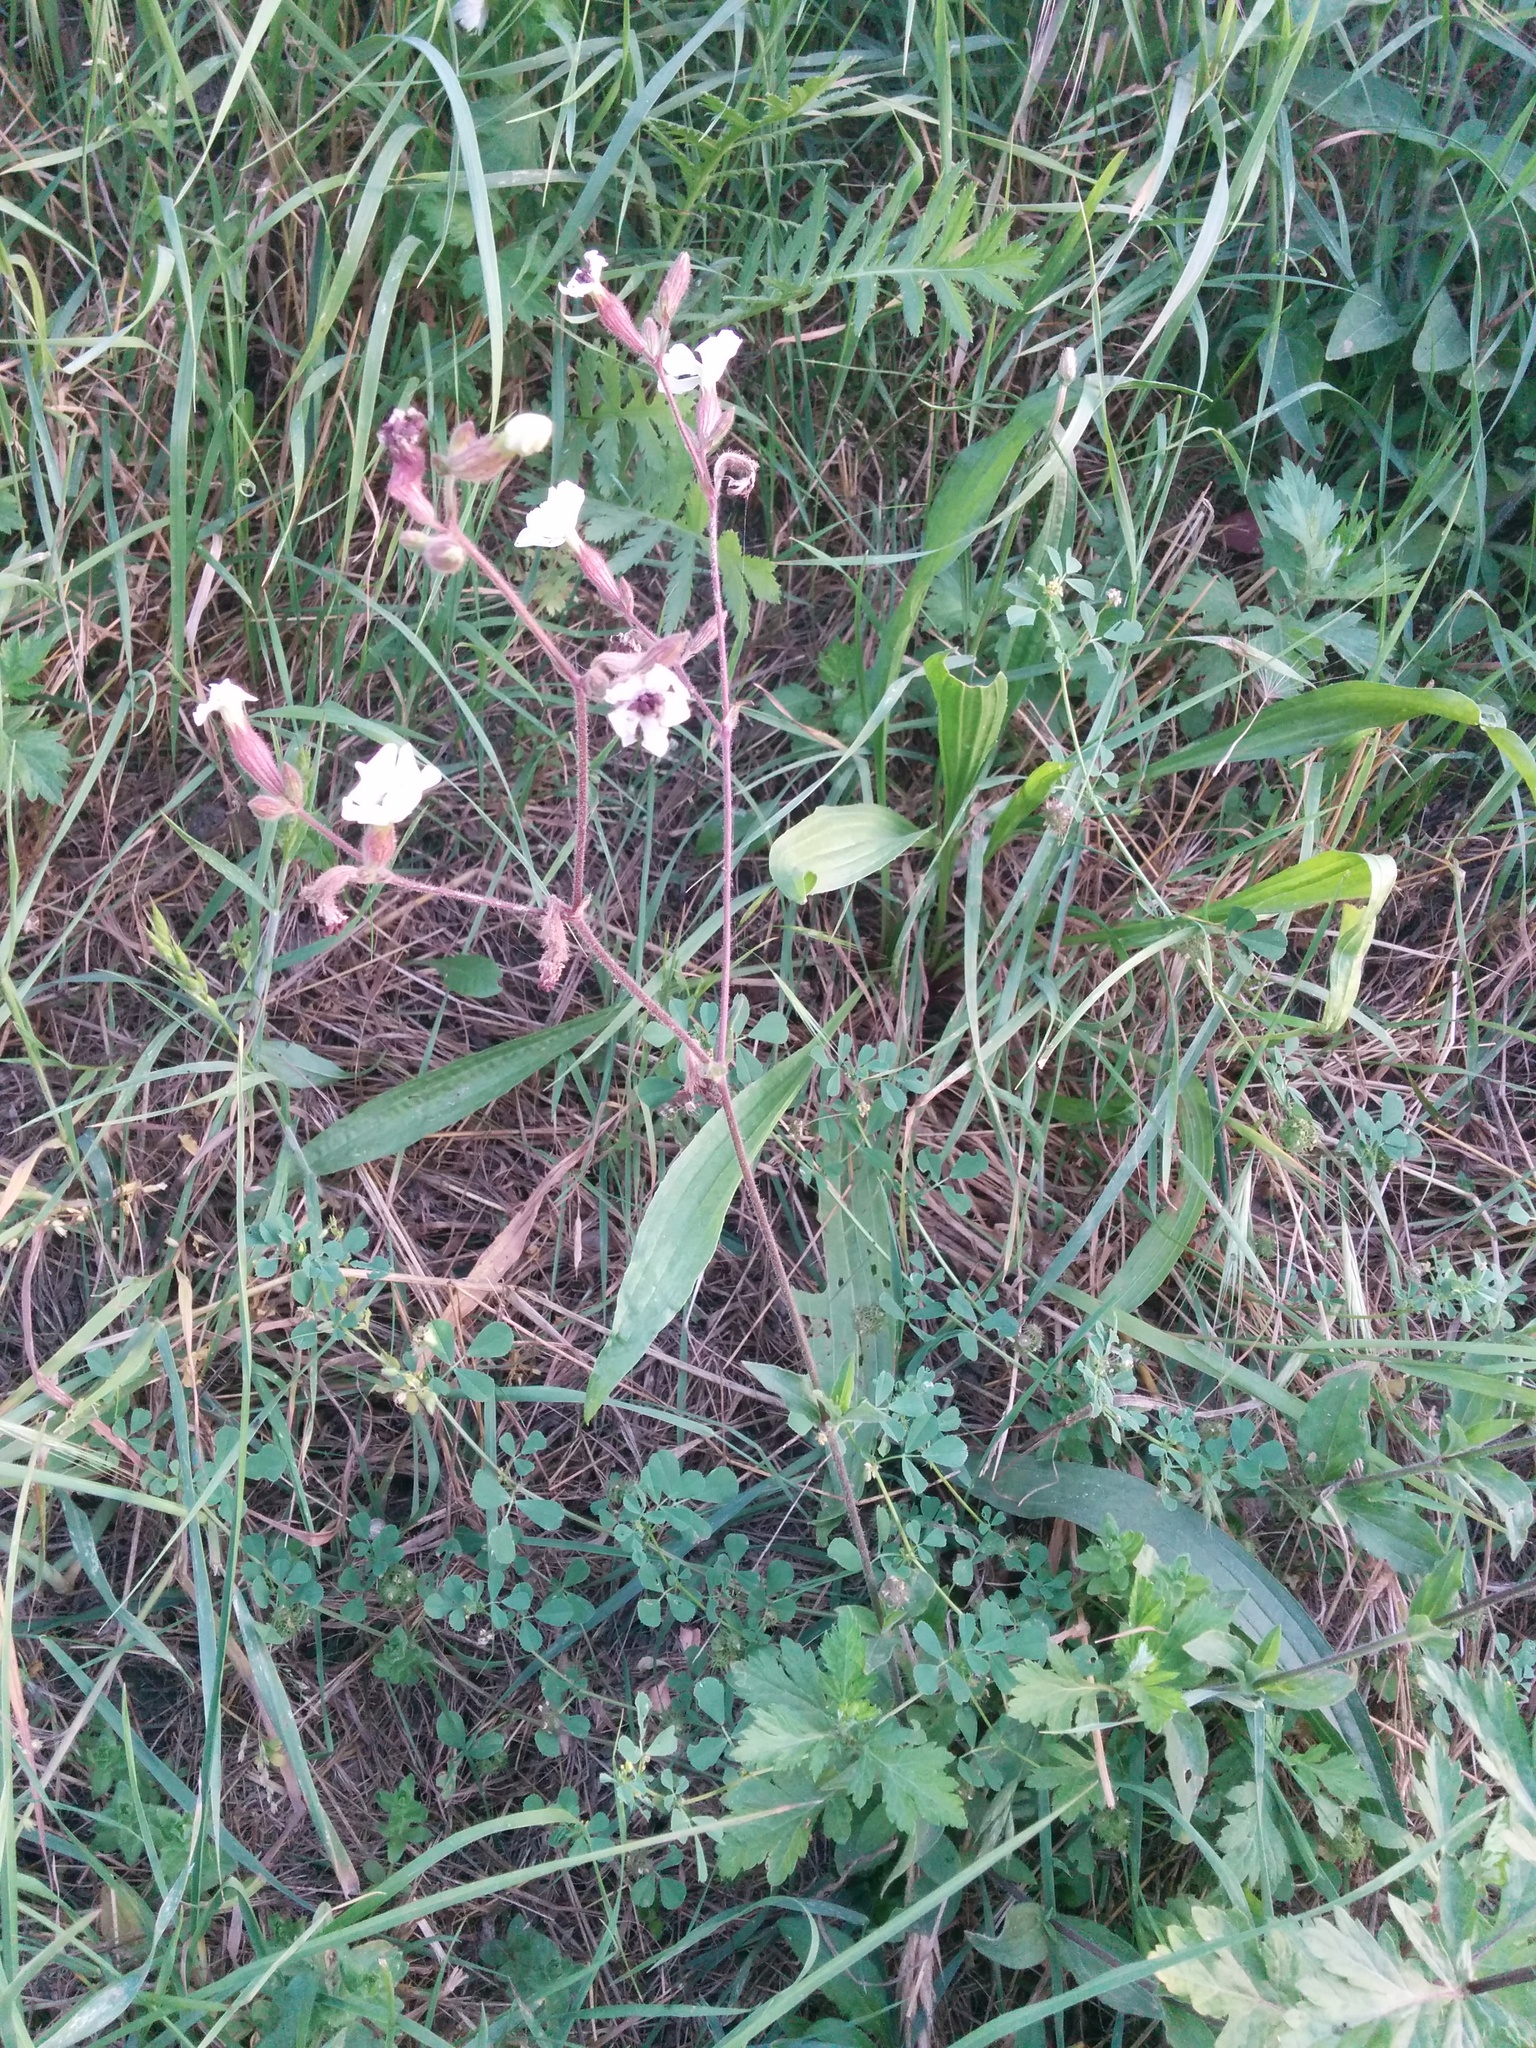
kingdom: Plantae
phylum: Tracheophyta
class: Magnoliopsida
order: Caryophyllales
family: Caryophyllaceae
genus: Silene
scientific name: Silene latifolia
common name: White campion
